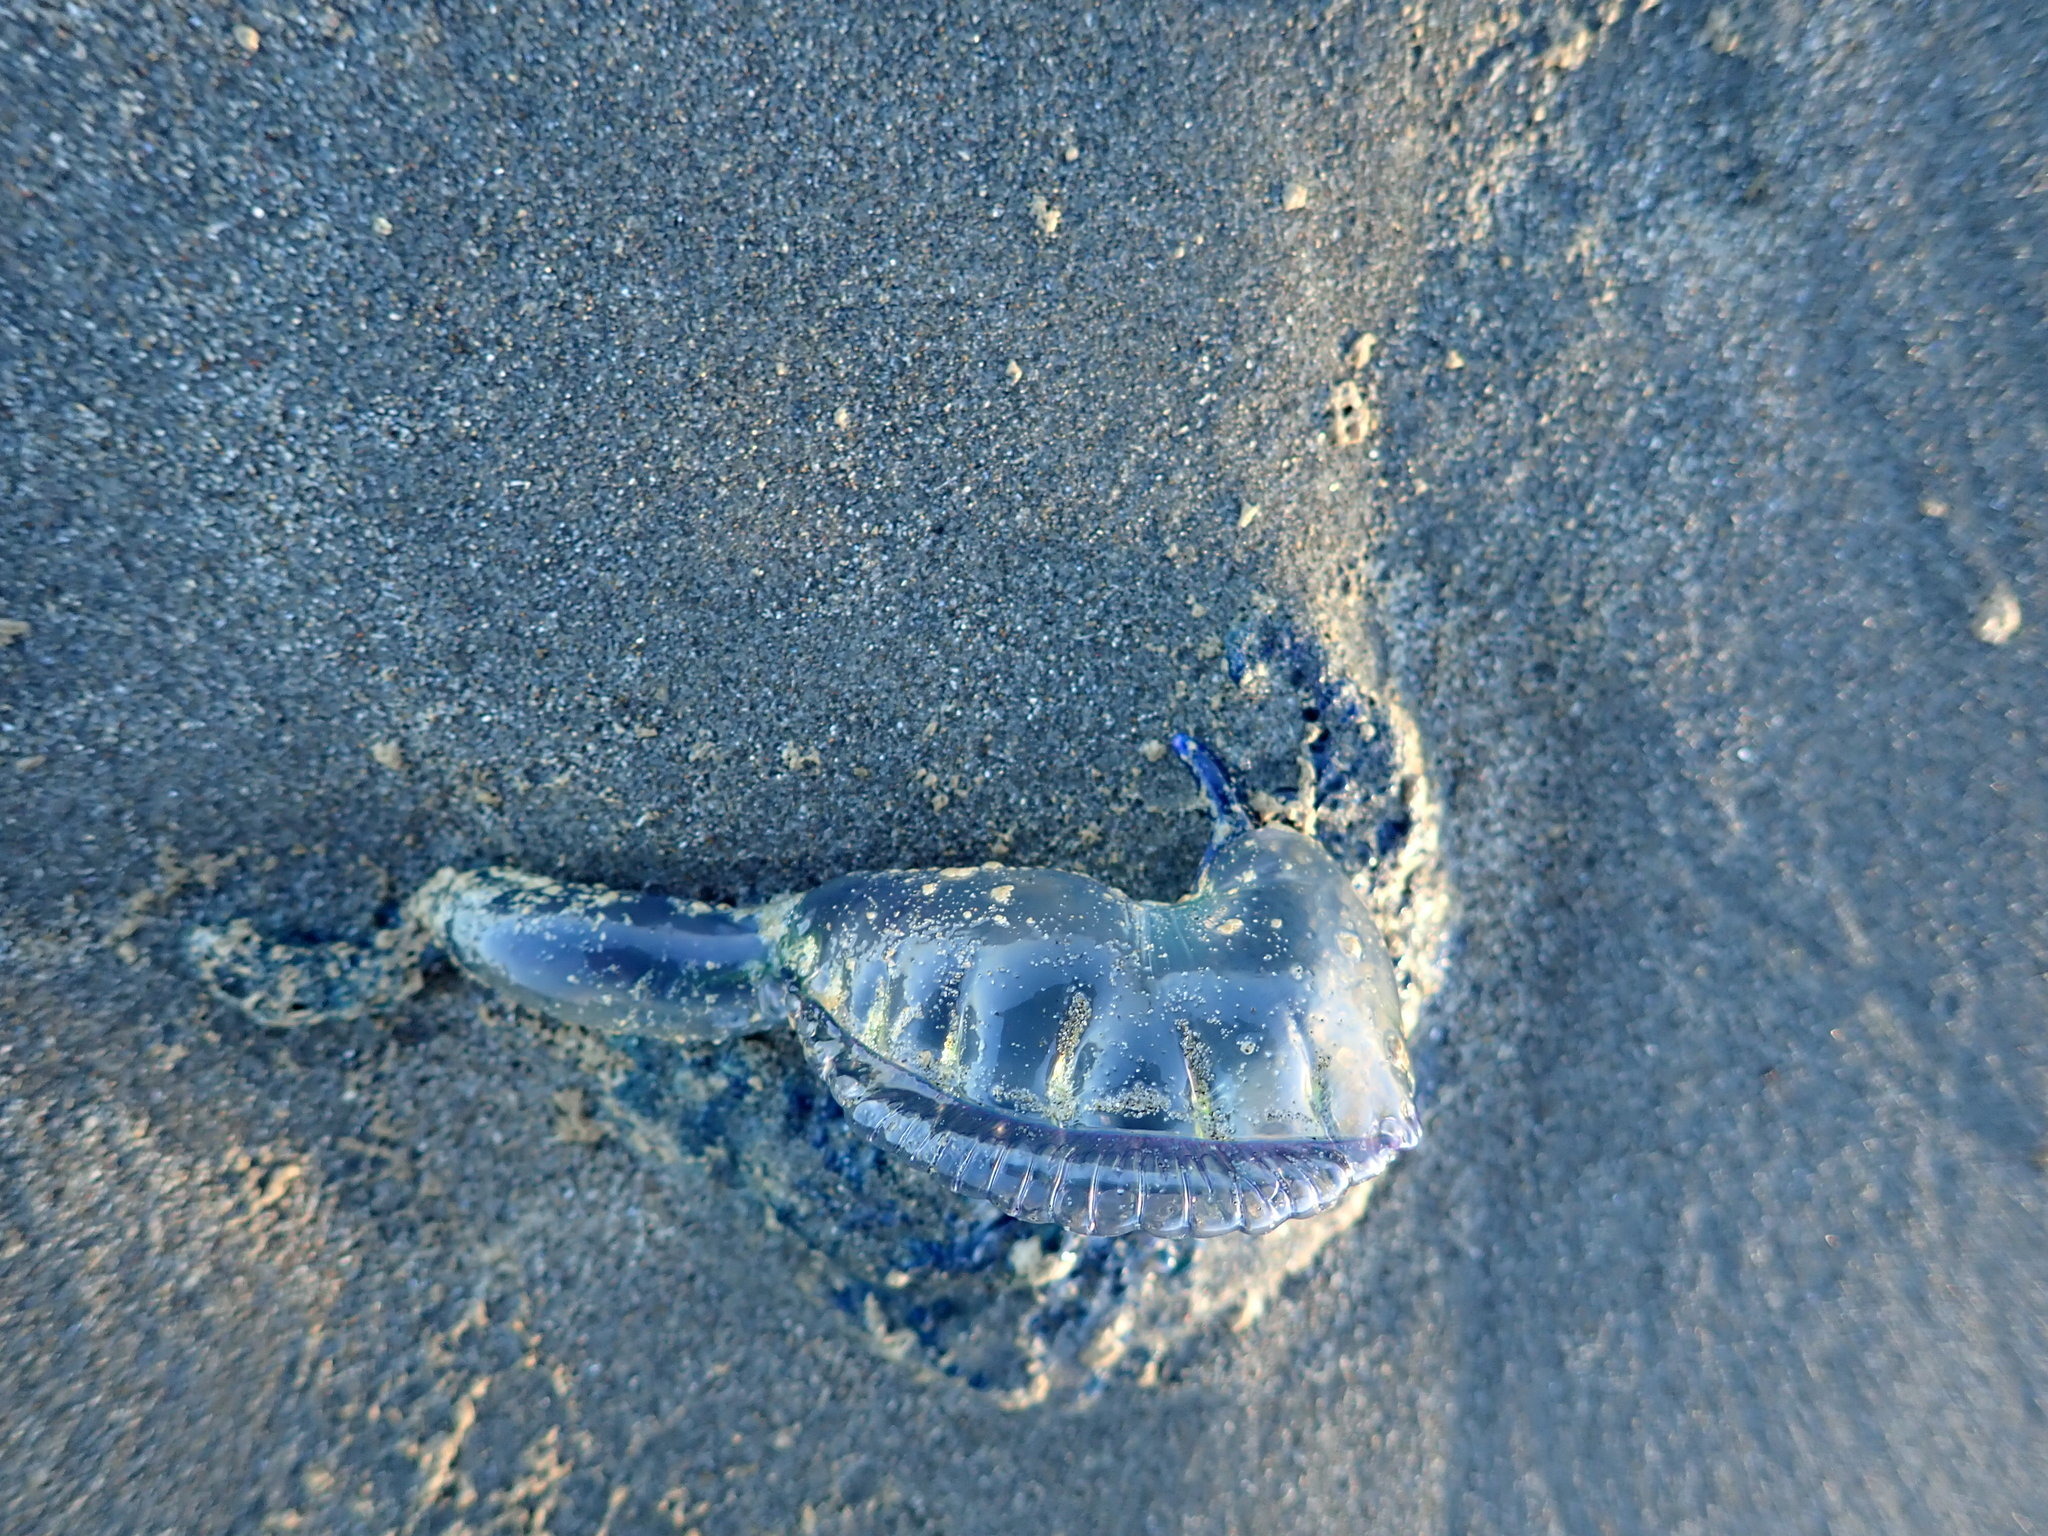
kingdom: Animalia
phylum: Cnidaria
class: Hydrozoa
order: Siphonophorae
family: Physaliidae
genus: Physalia
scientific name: Physalia physalis
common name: Portuguese man-of-war
